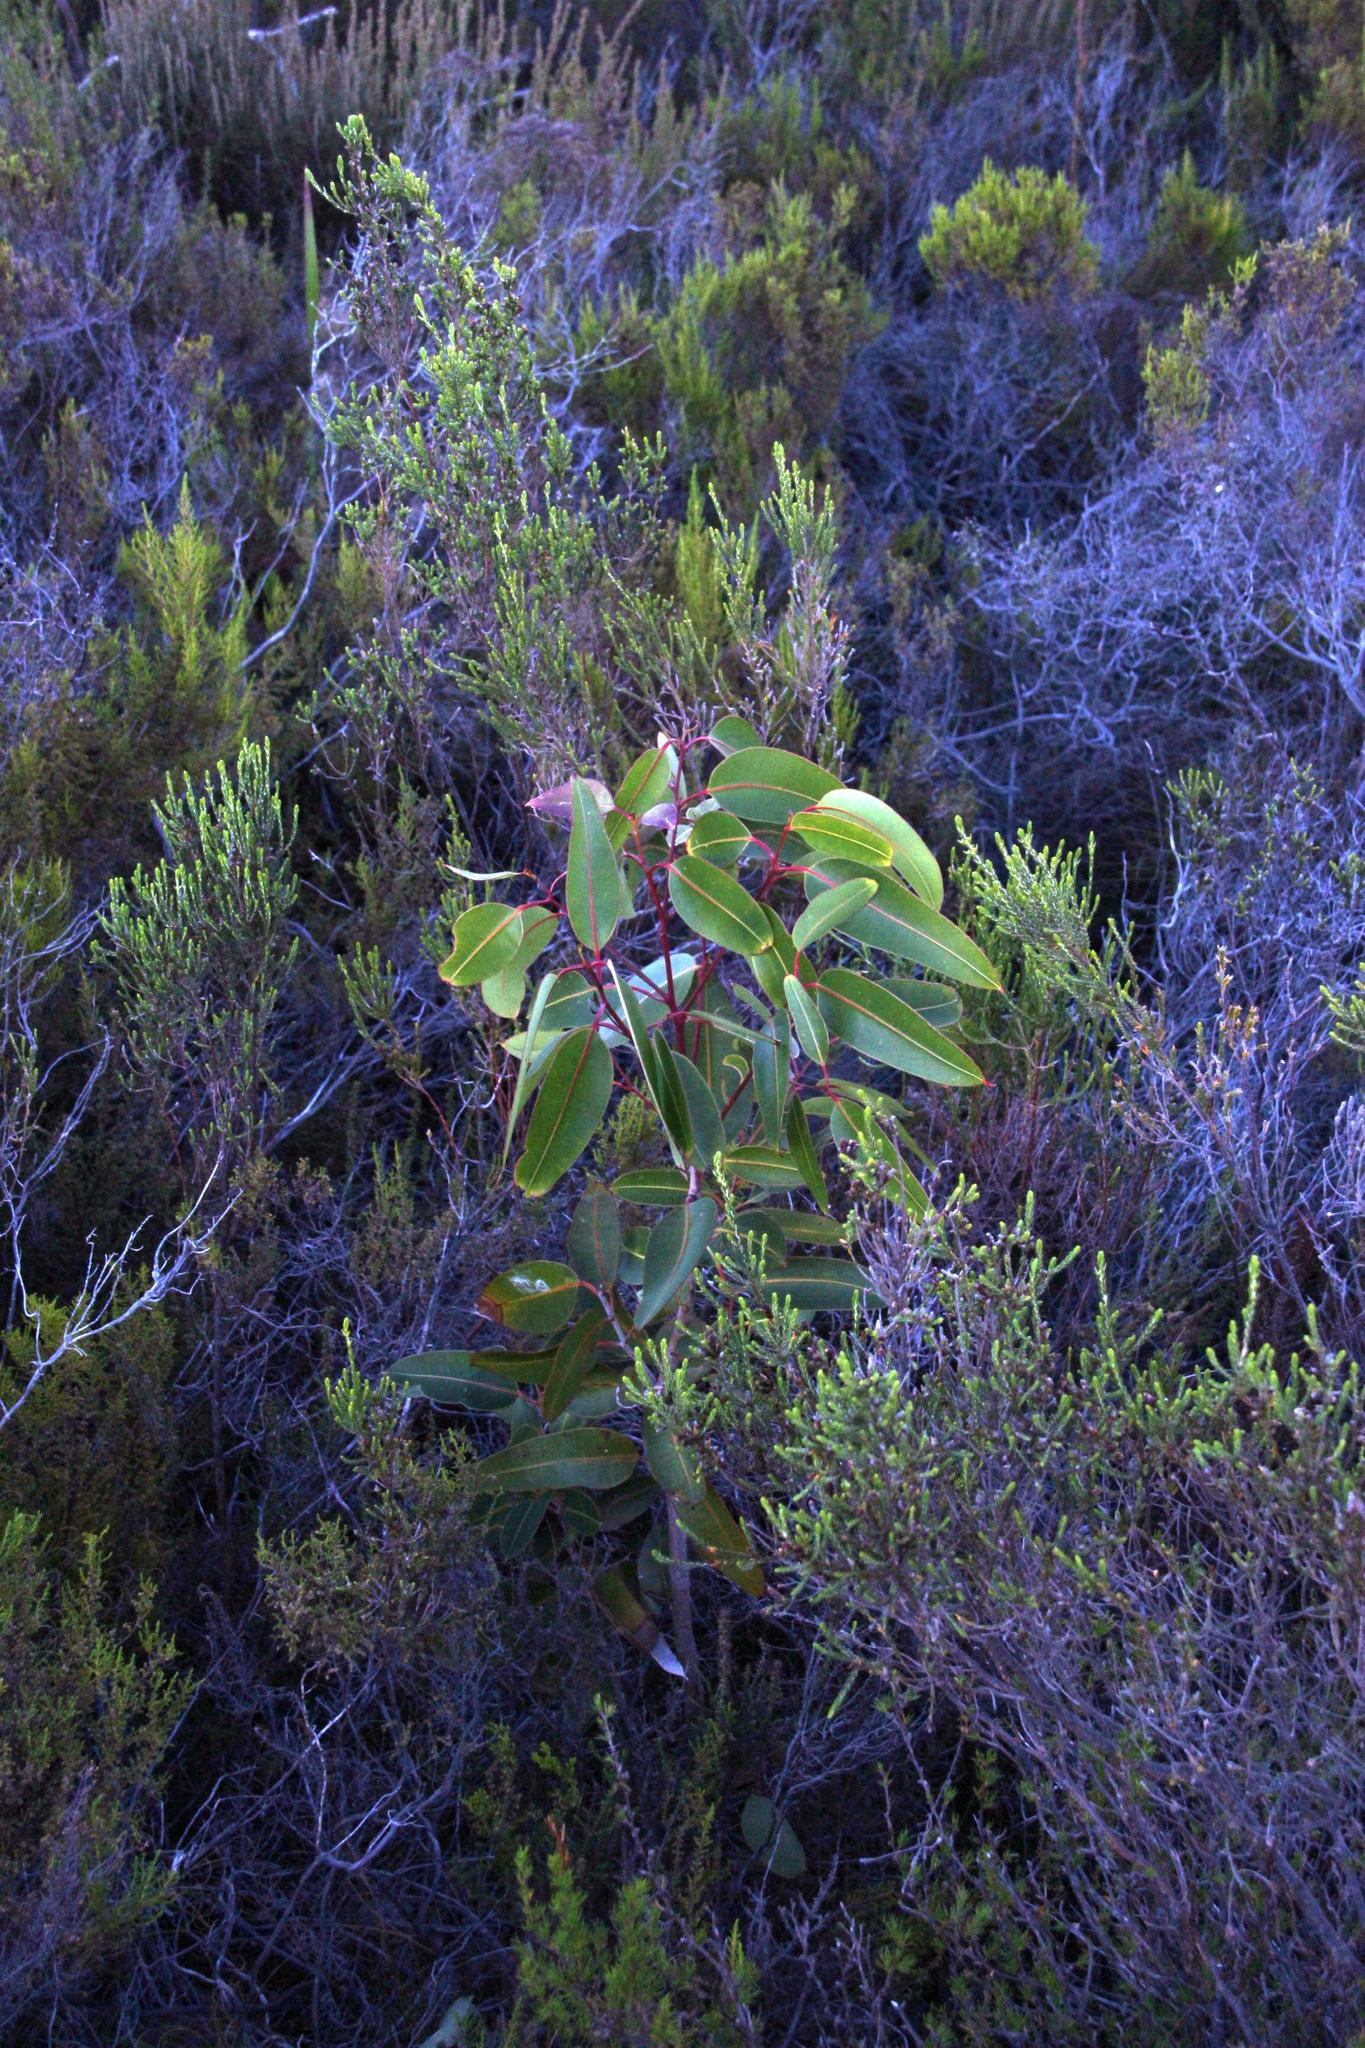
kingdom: Plantae
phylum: Tracheophyta
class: Magnoliopsida
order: Myrtales
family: Myrtaceae
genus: Corymbia
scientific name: Corymbia ficifolia
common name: Redflower gum
